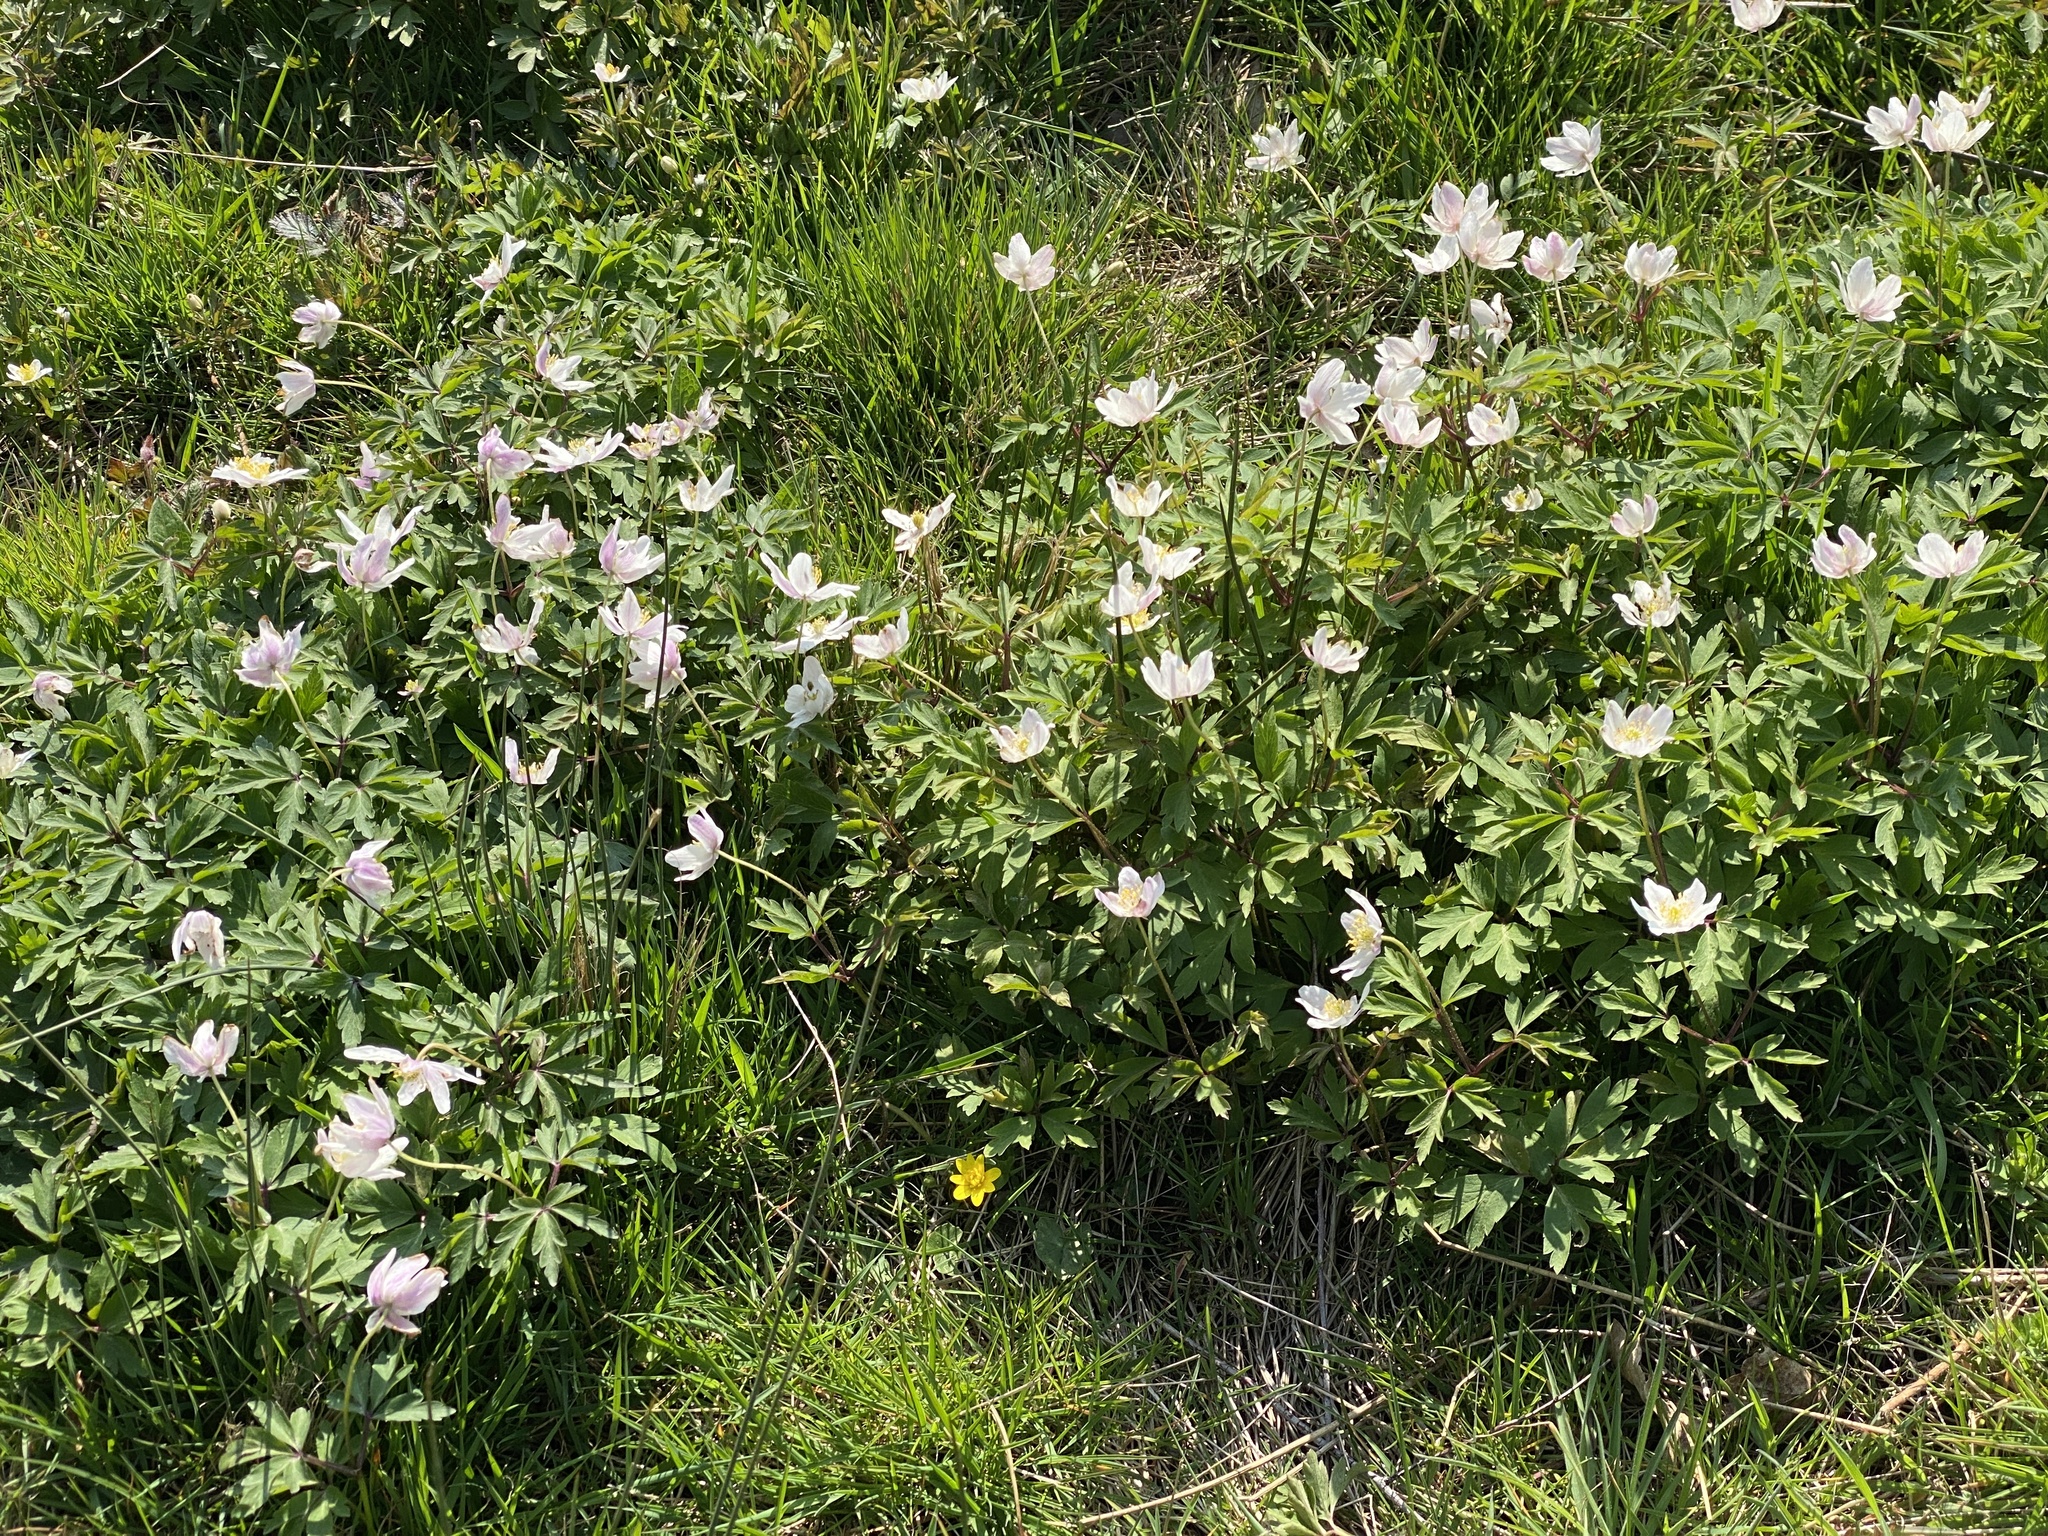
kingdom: Plantae
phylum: Tracheophyta
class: Magnoliopsida
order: Ranunculales
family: Ranunculaceae
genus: Anemone
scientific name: Anemone nemorosa
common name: Wood anemone
